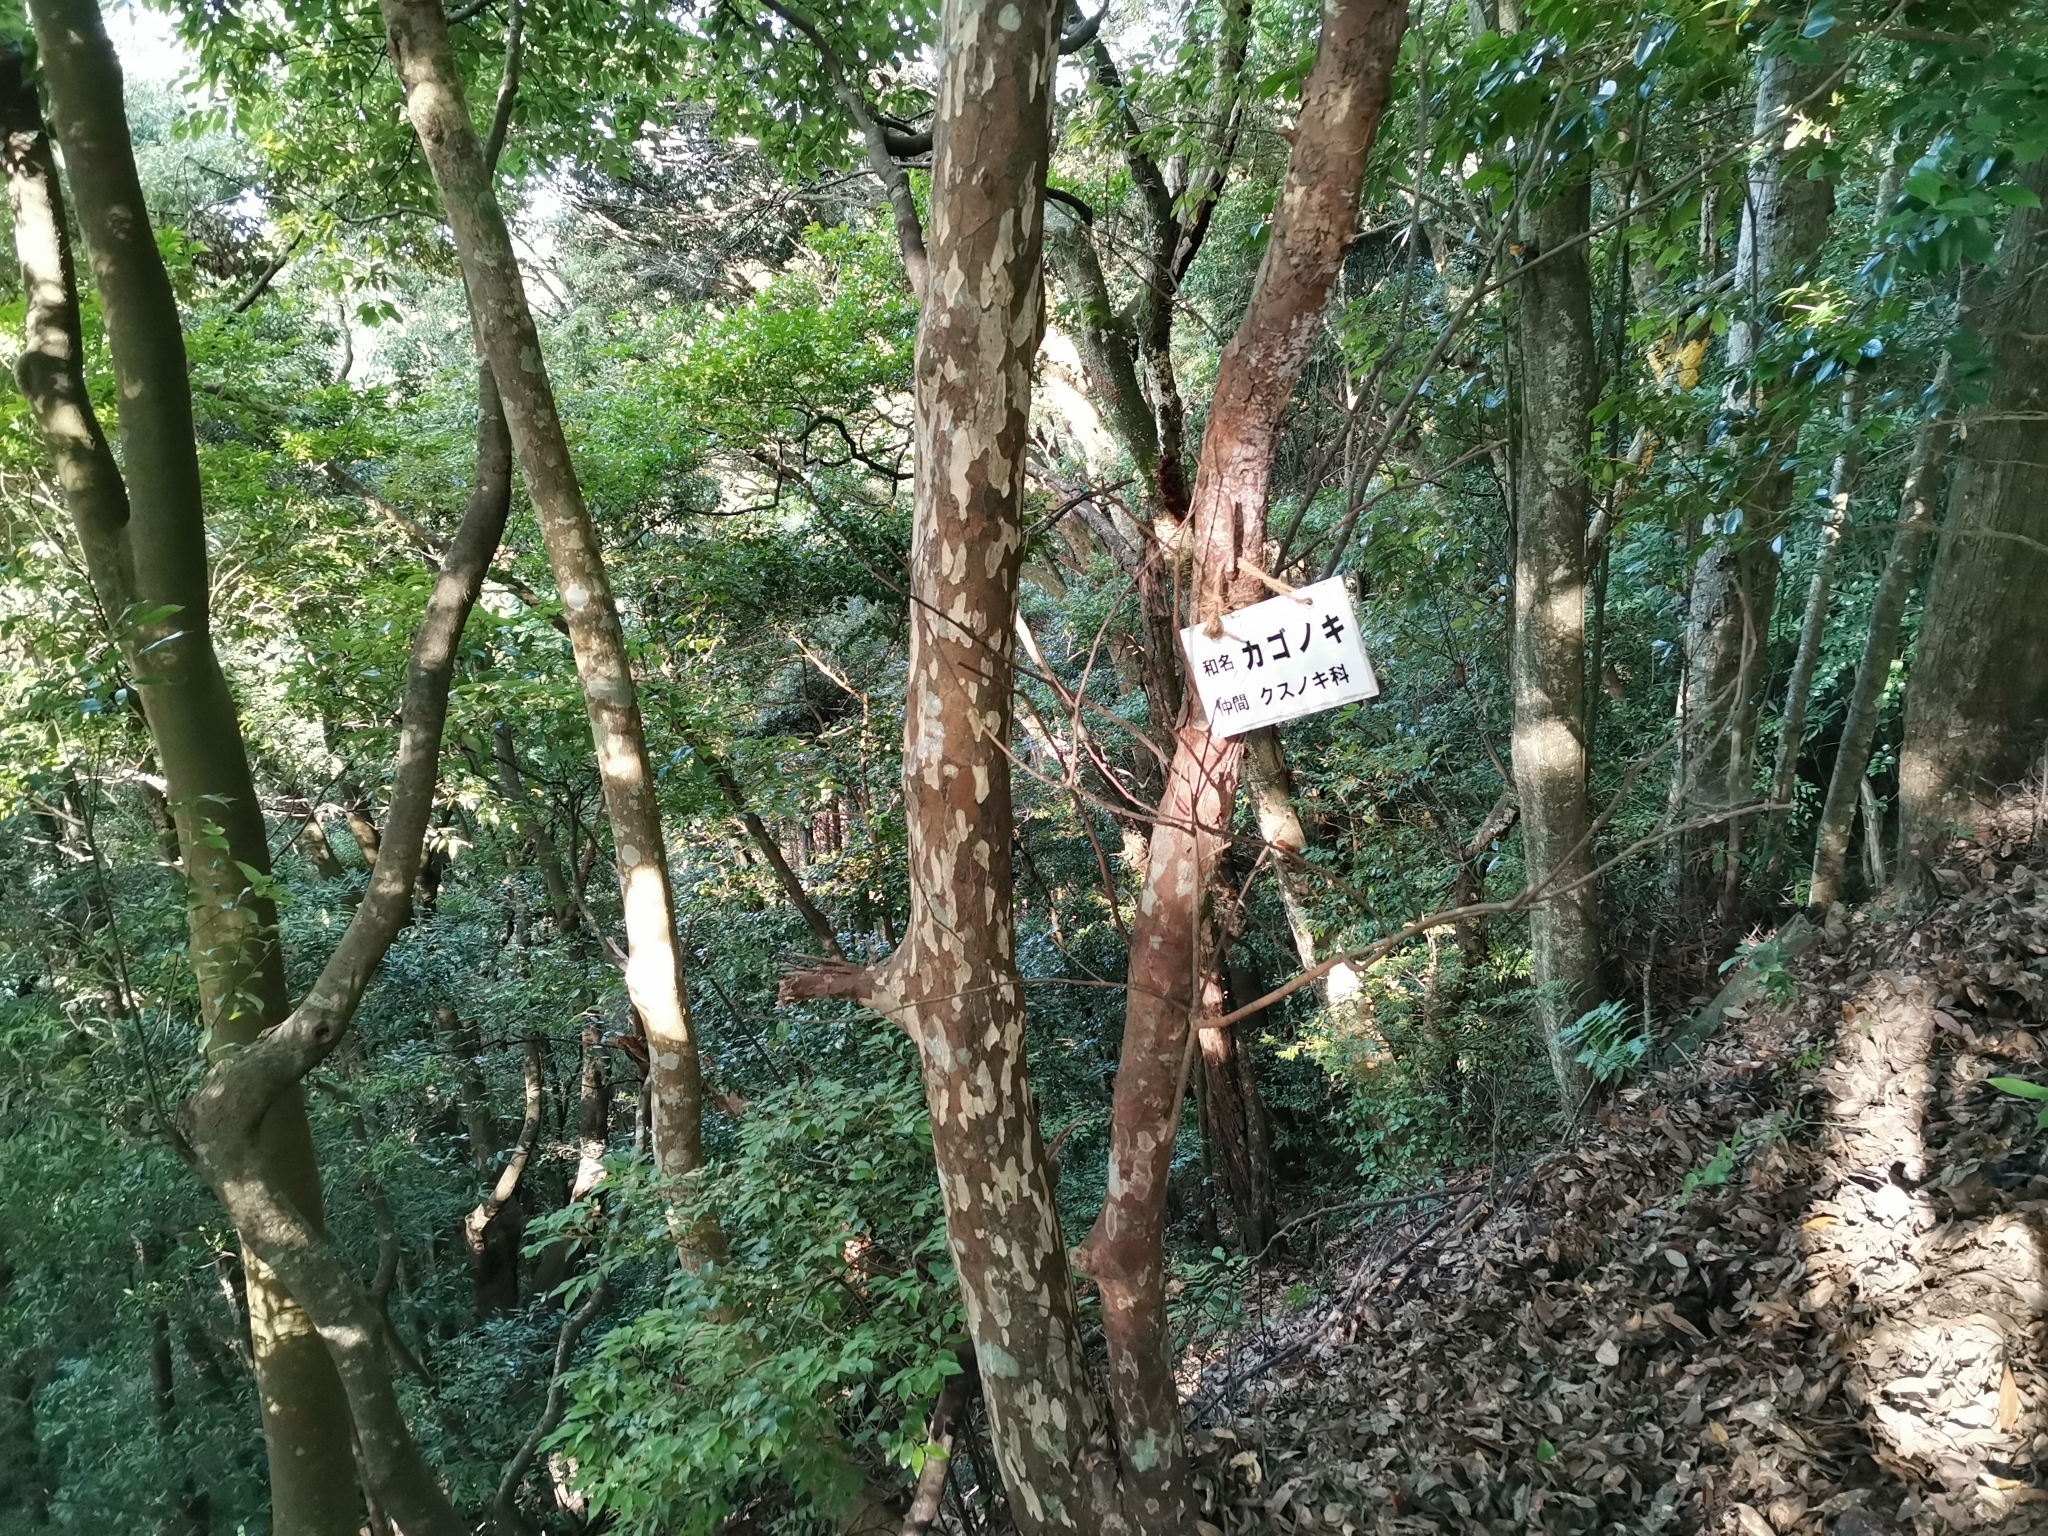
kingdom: Plantae
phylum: Tracheophyta
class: Magnoliopsida
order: Laurales
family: Lauraceae
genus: Litsea
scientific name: Litsea coreana
